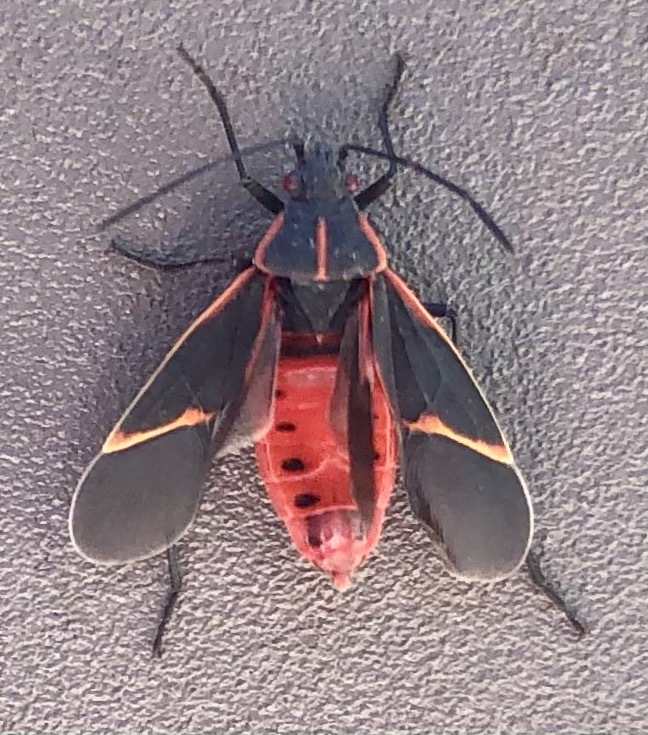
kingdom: Animalia
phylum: Arthropoda
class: Insecta
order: Hemiptera
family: Rhopalidae
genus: Boisea
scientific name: Boisea trivittata
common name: Boxelder bug
